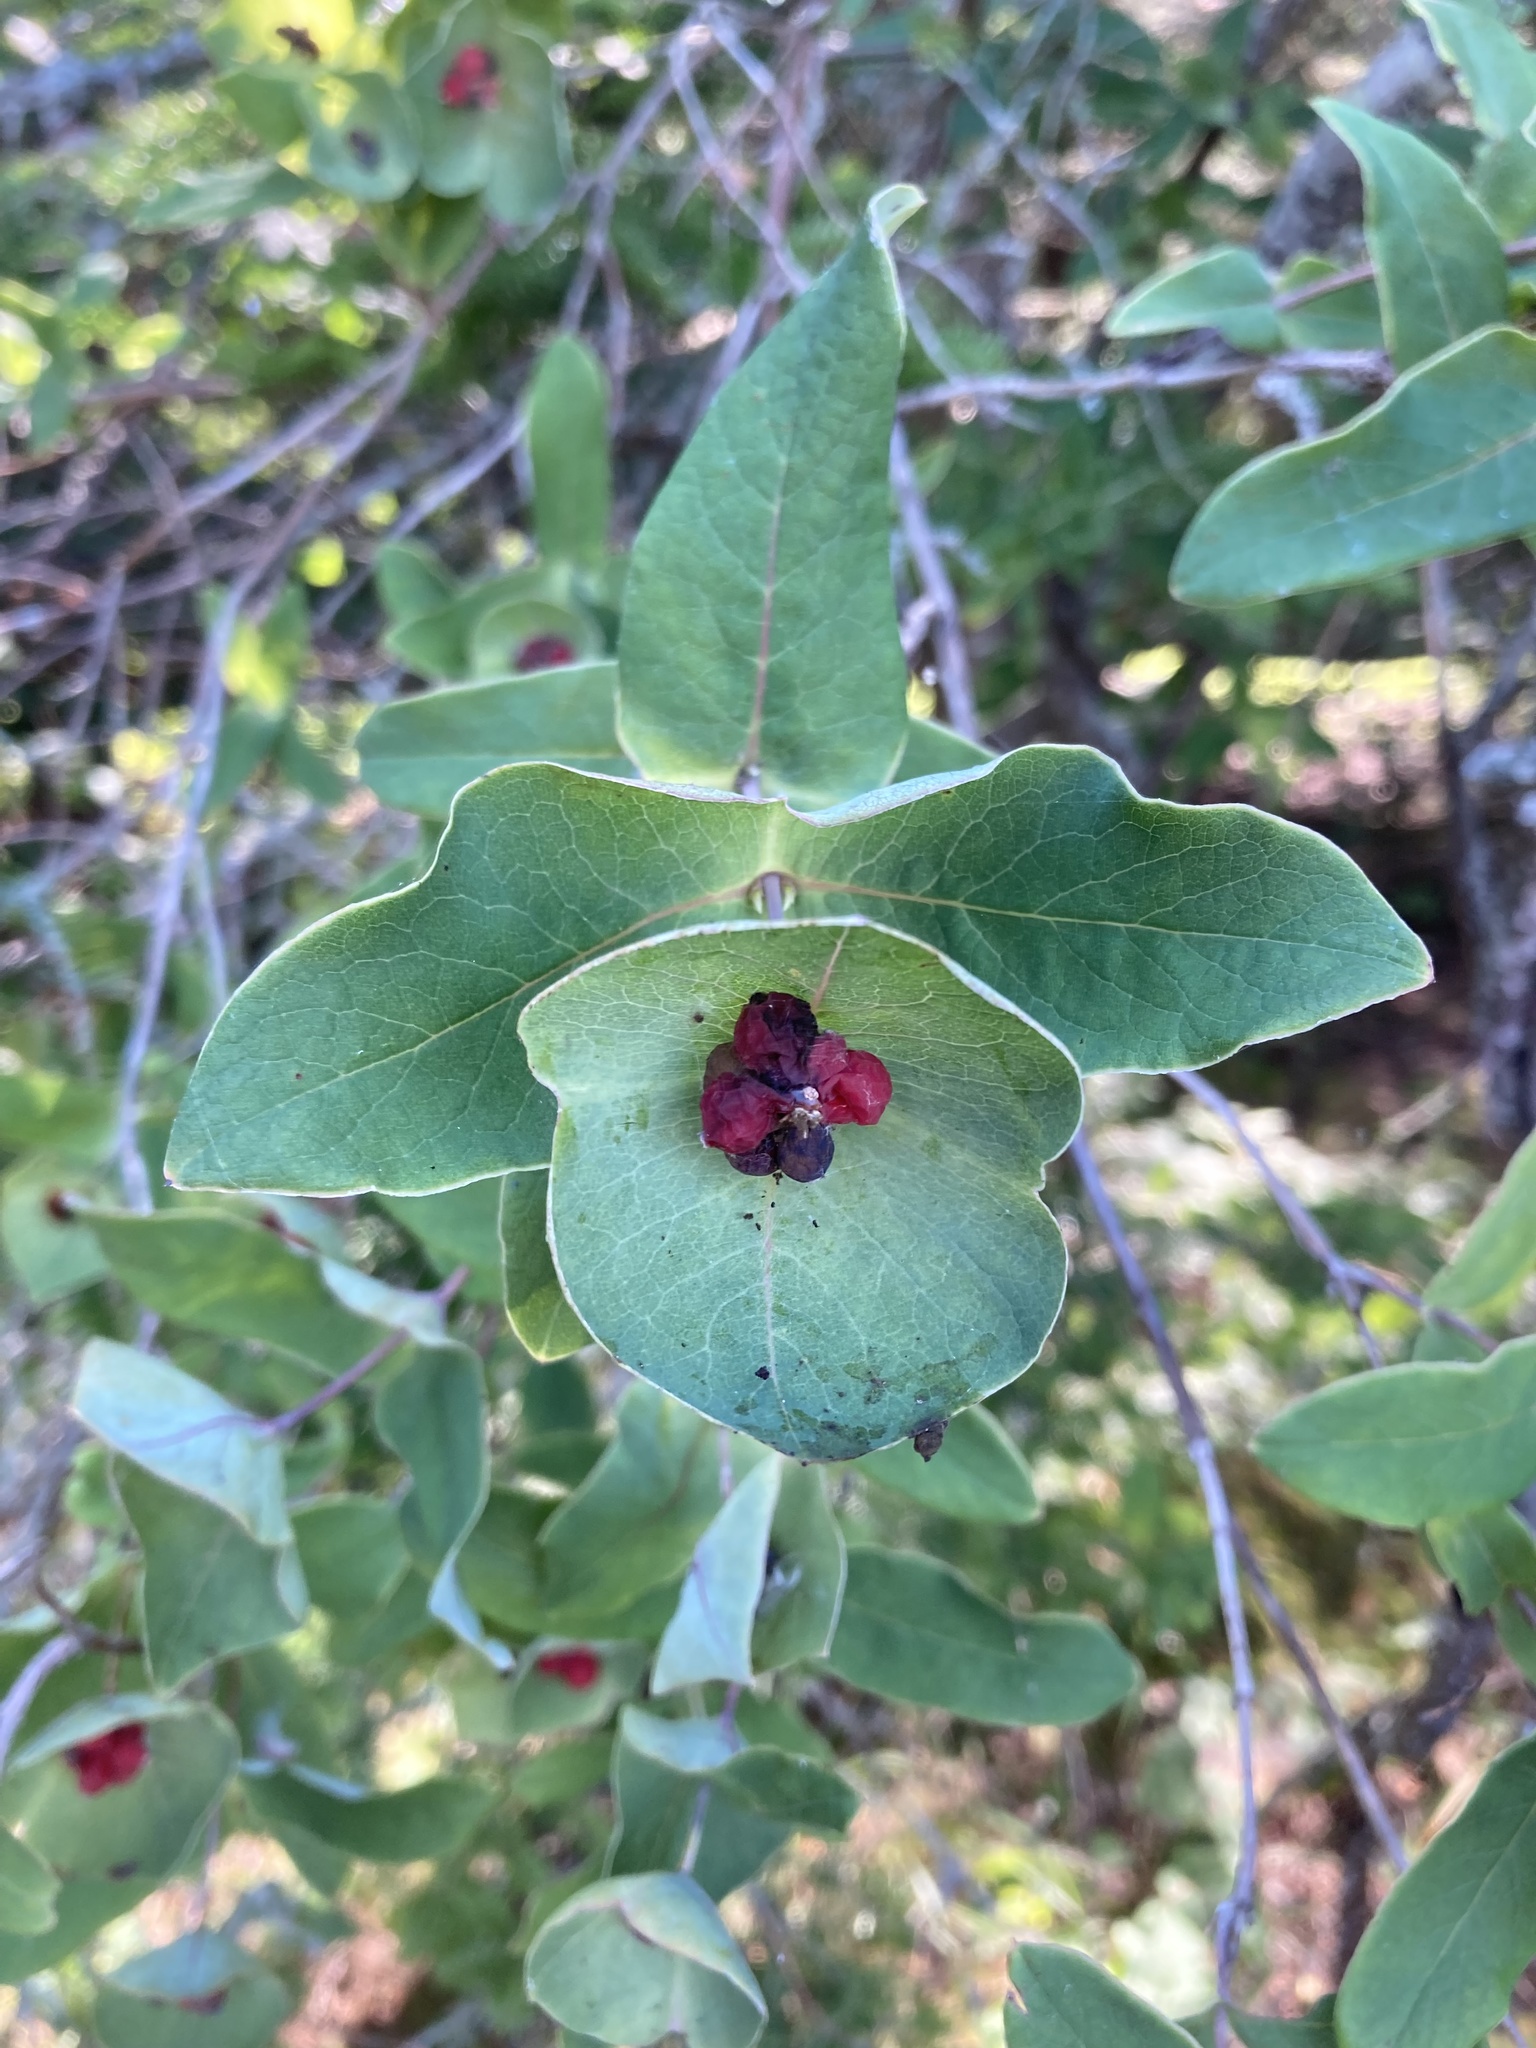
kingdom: Plantae
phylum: Tracheophyta
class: Magnoliopsida
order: Dipsacales
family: Caprifoliaceae
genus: Lonicera
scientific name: Lonicera dioica
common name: Limber honeysuckle
